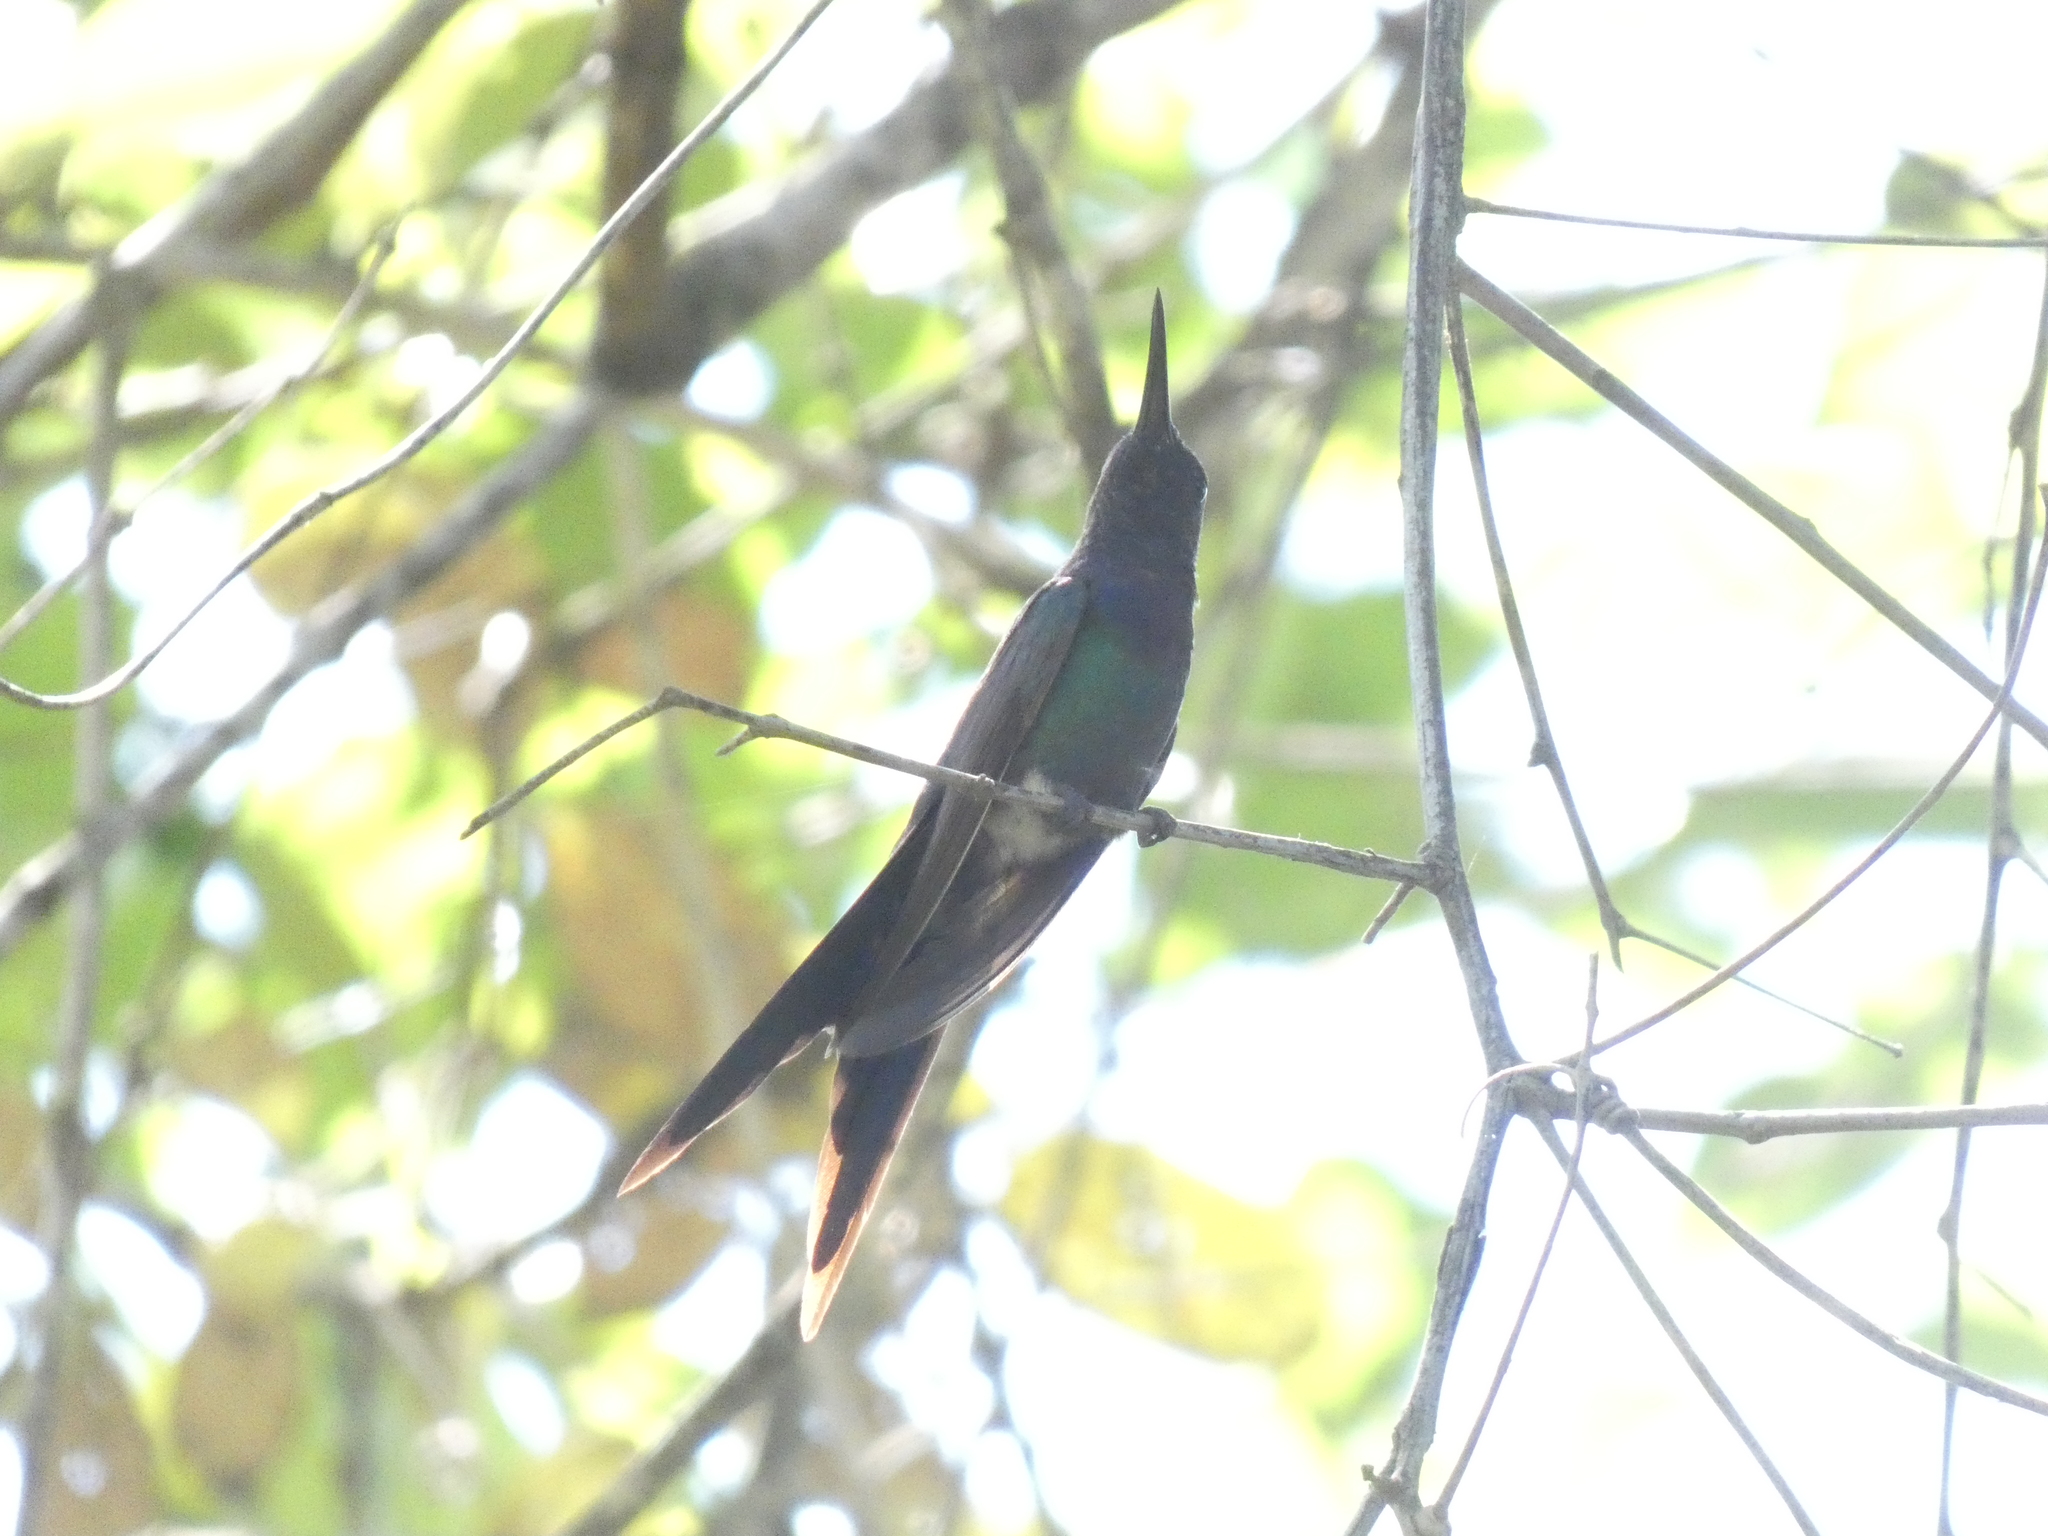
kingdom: Animalia
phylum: Chordata
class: Aves
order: Apodiformes
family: Trochilidae
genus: Eupetomena
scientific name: Eupetomena macroura
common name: Swallow-tailed hummingbird
